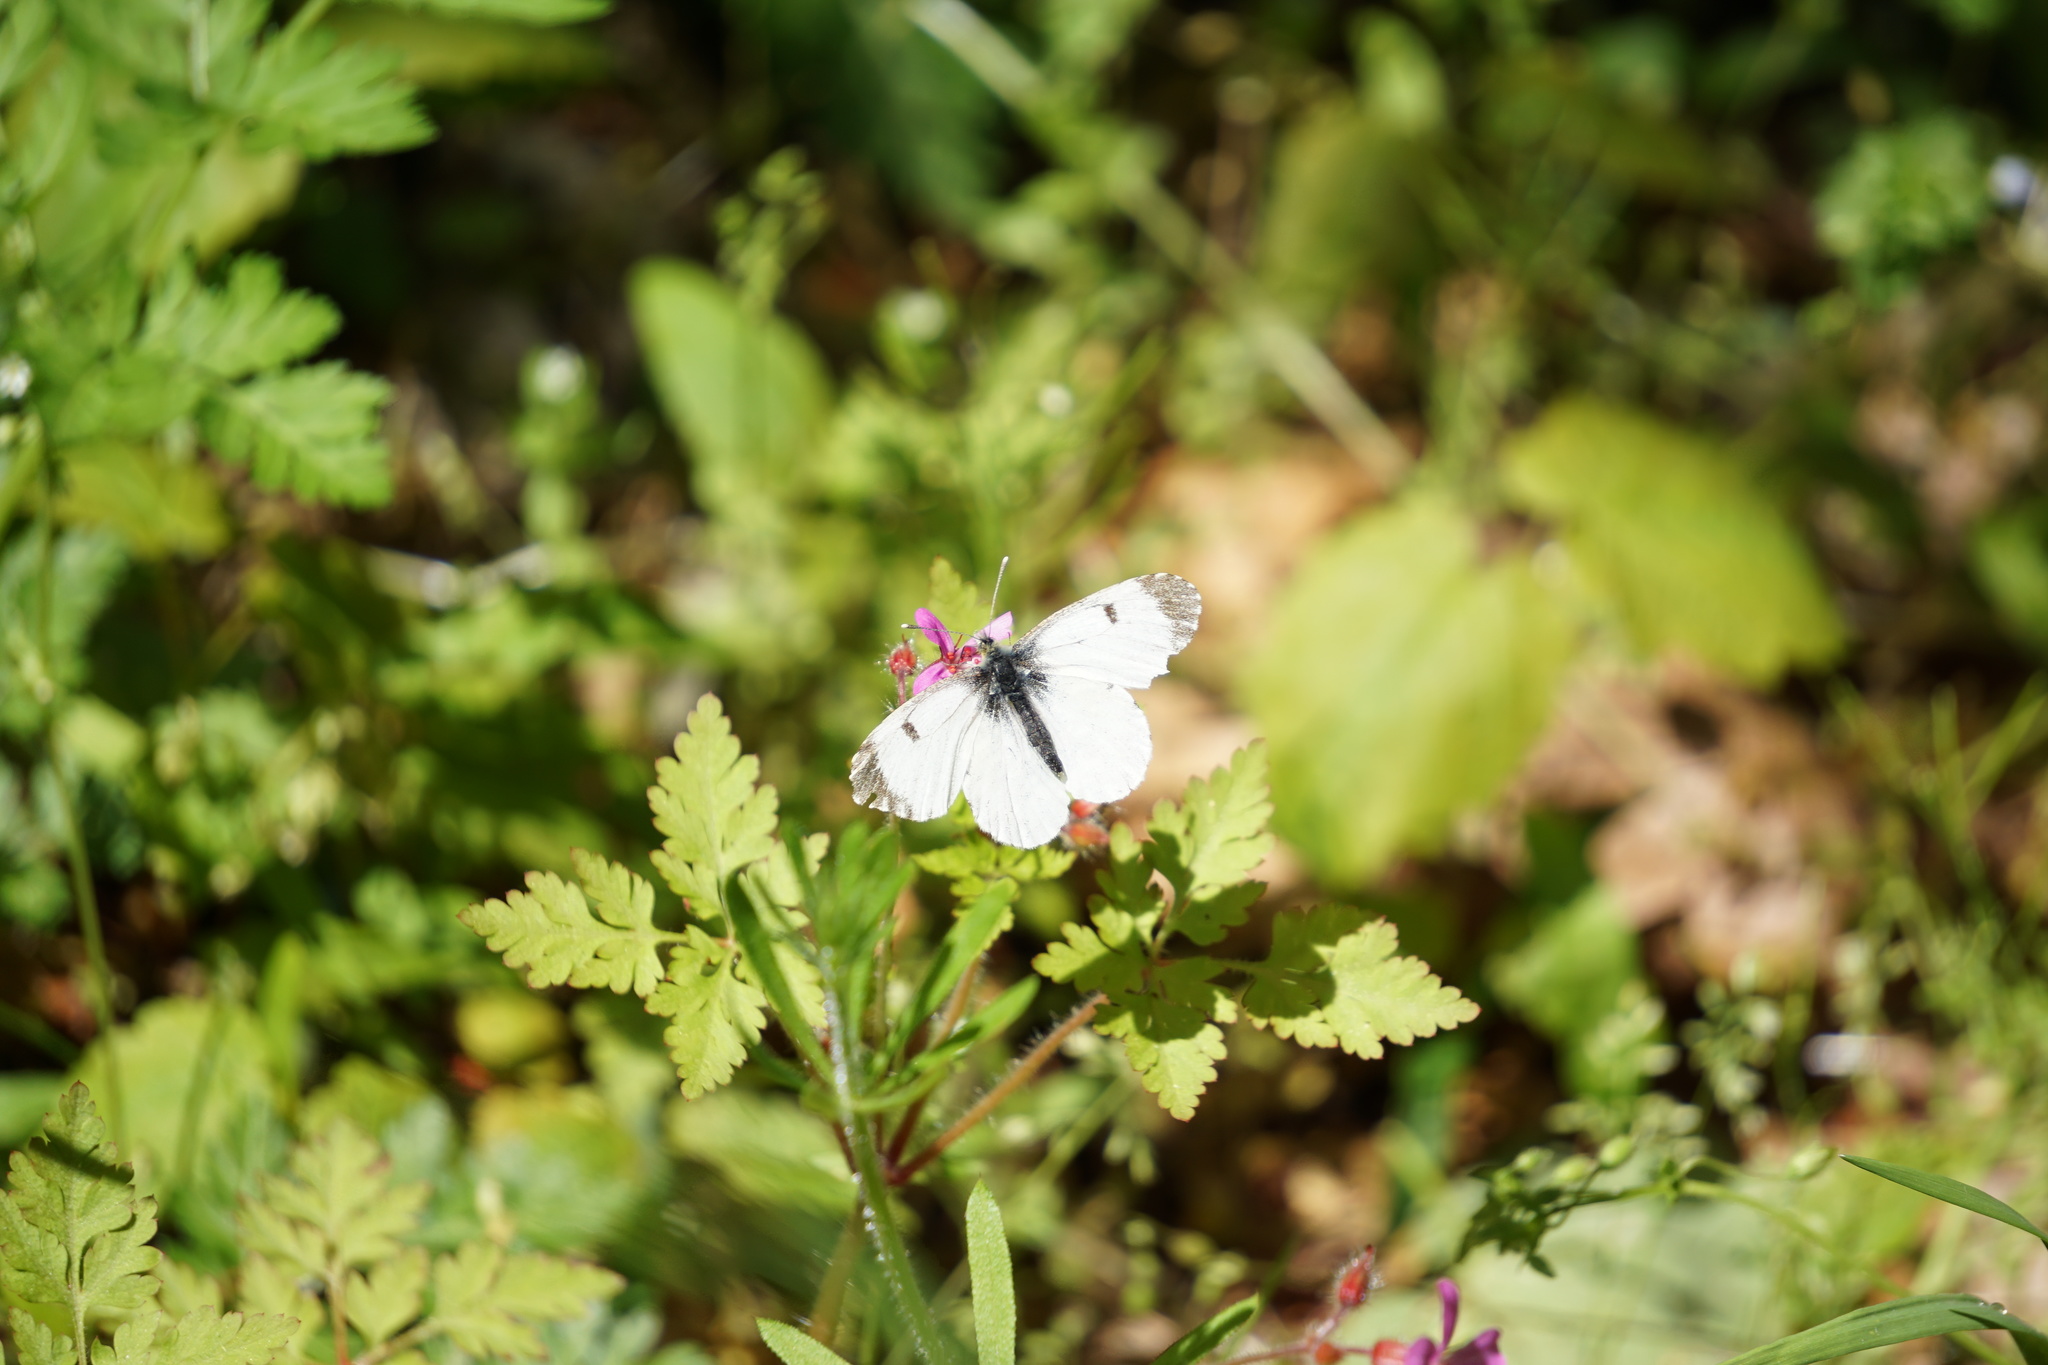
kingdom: Animalia
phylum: Arthropoda
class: Insecta
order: Lepidoptera
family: Pieridae
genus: Anthocharis
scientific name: Anthocharis cardamines
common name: Orange-tip
